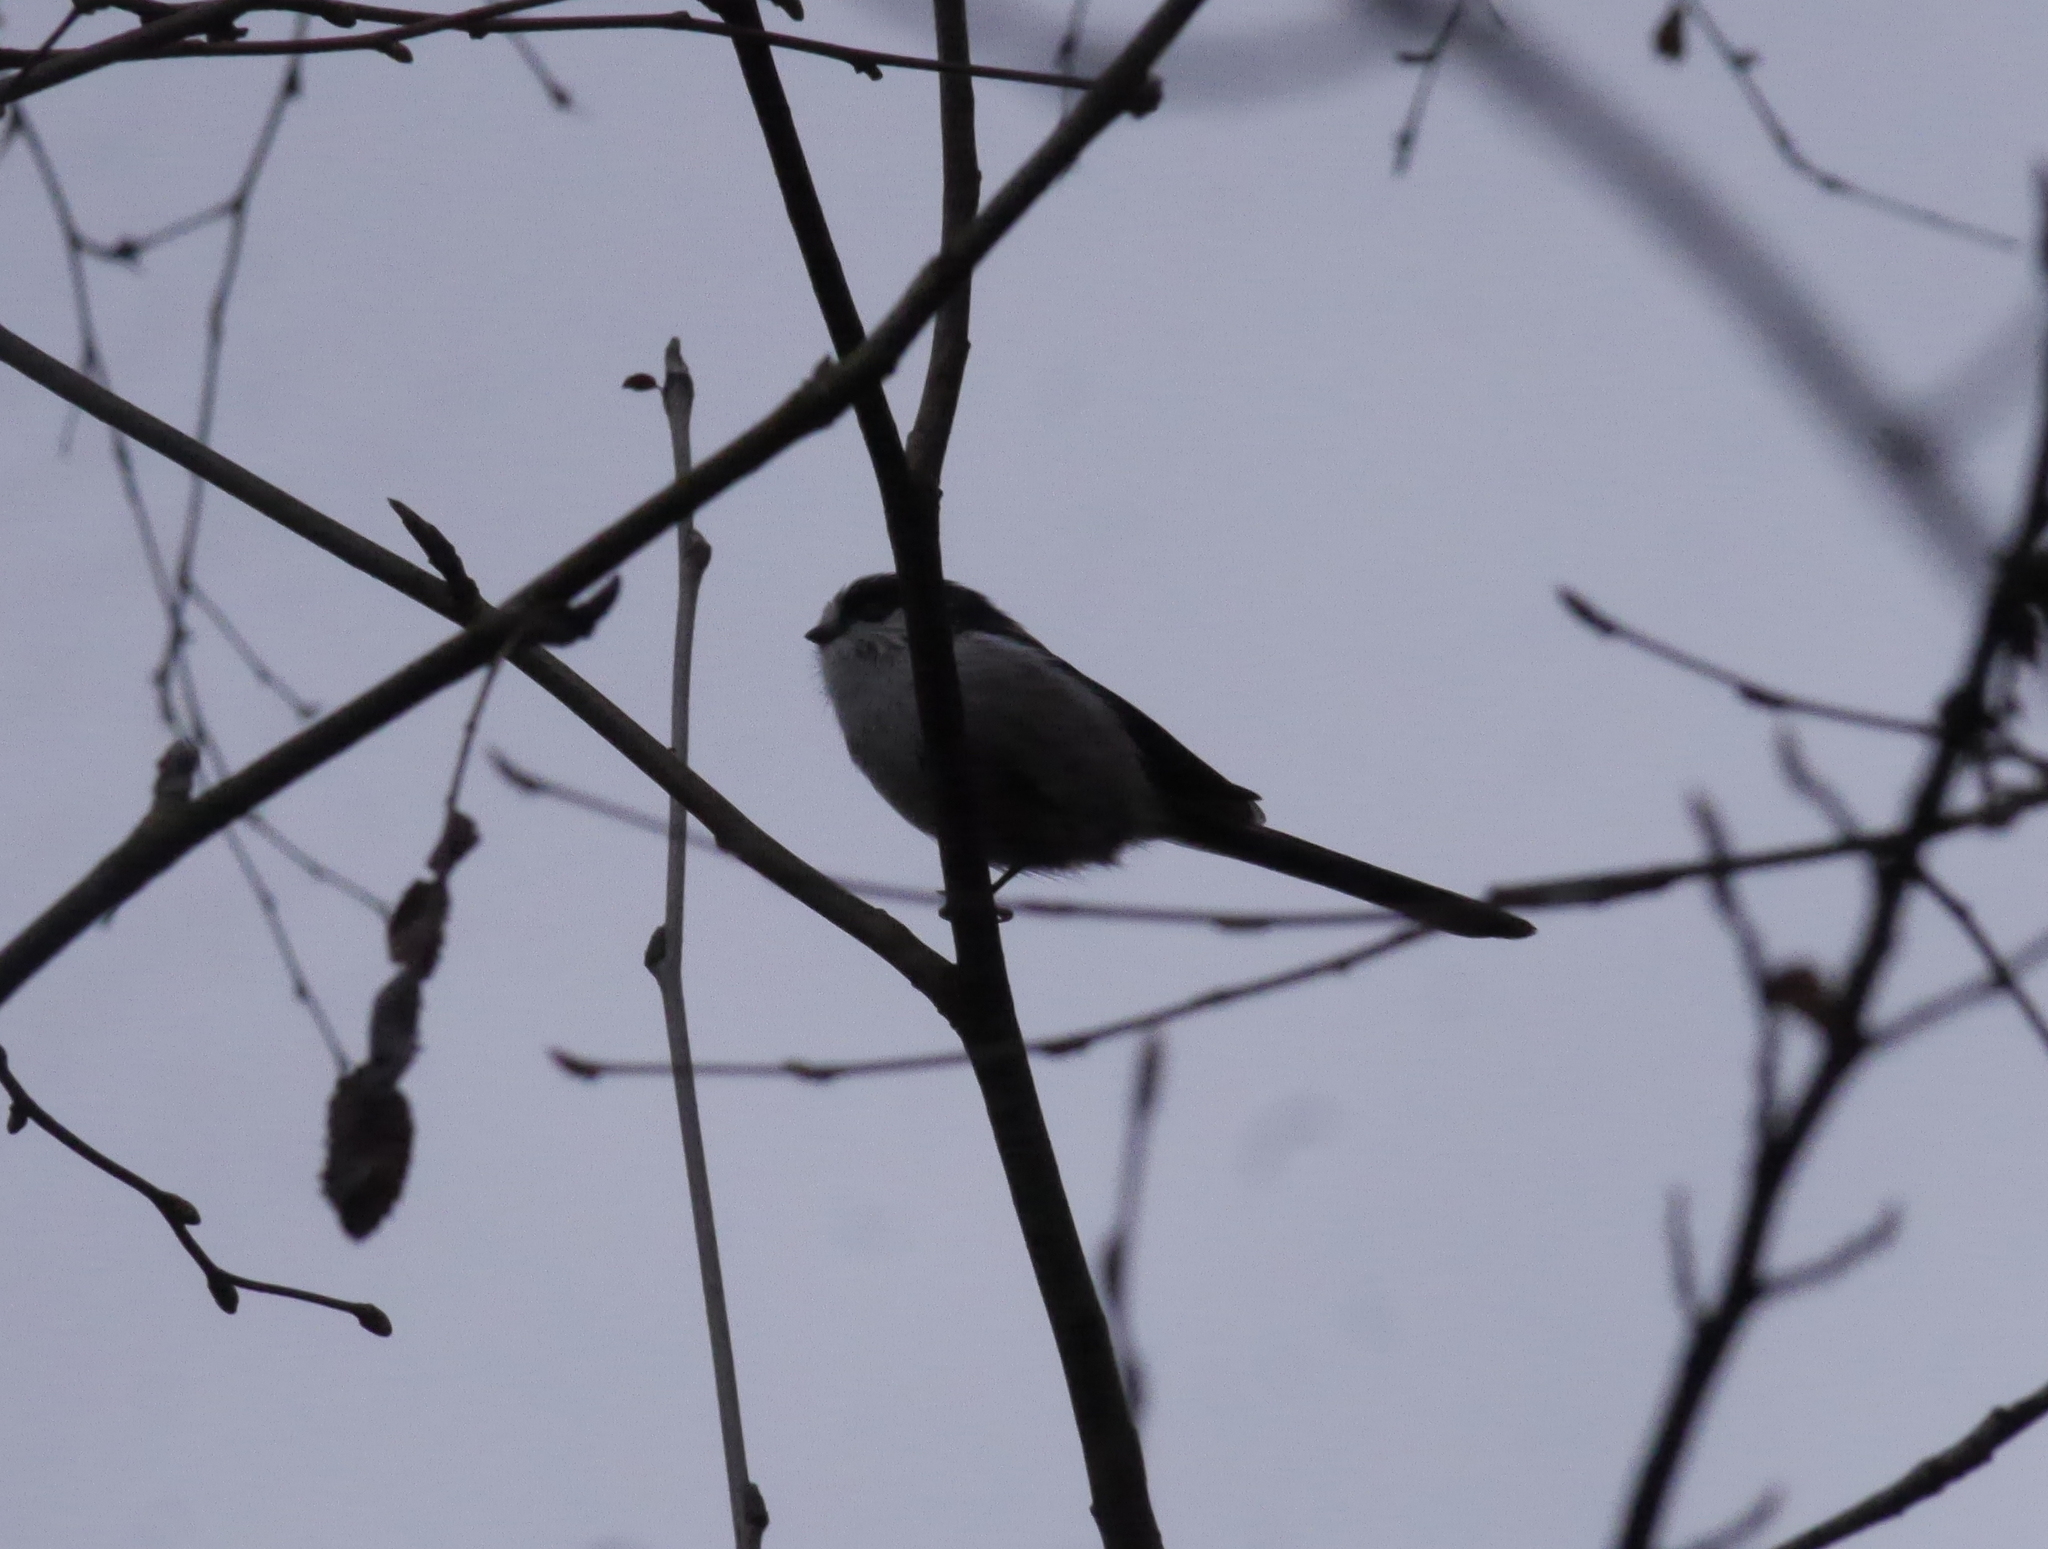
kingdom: Animalia
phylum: Chordata
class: Aves
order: Passeriformes
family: Aegithalidae
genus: Aegithalos
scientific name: Aegithalos caudatus
